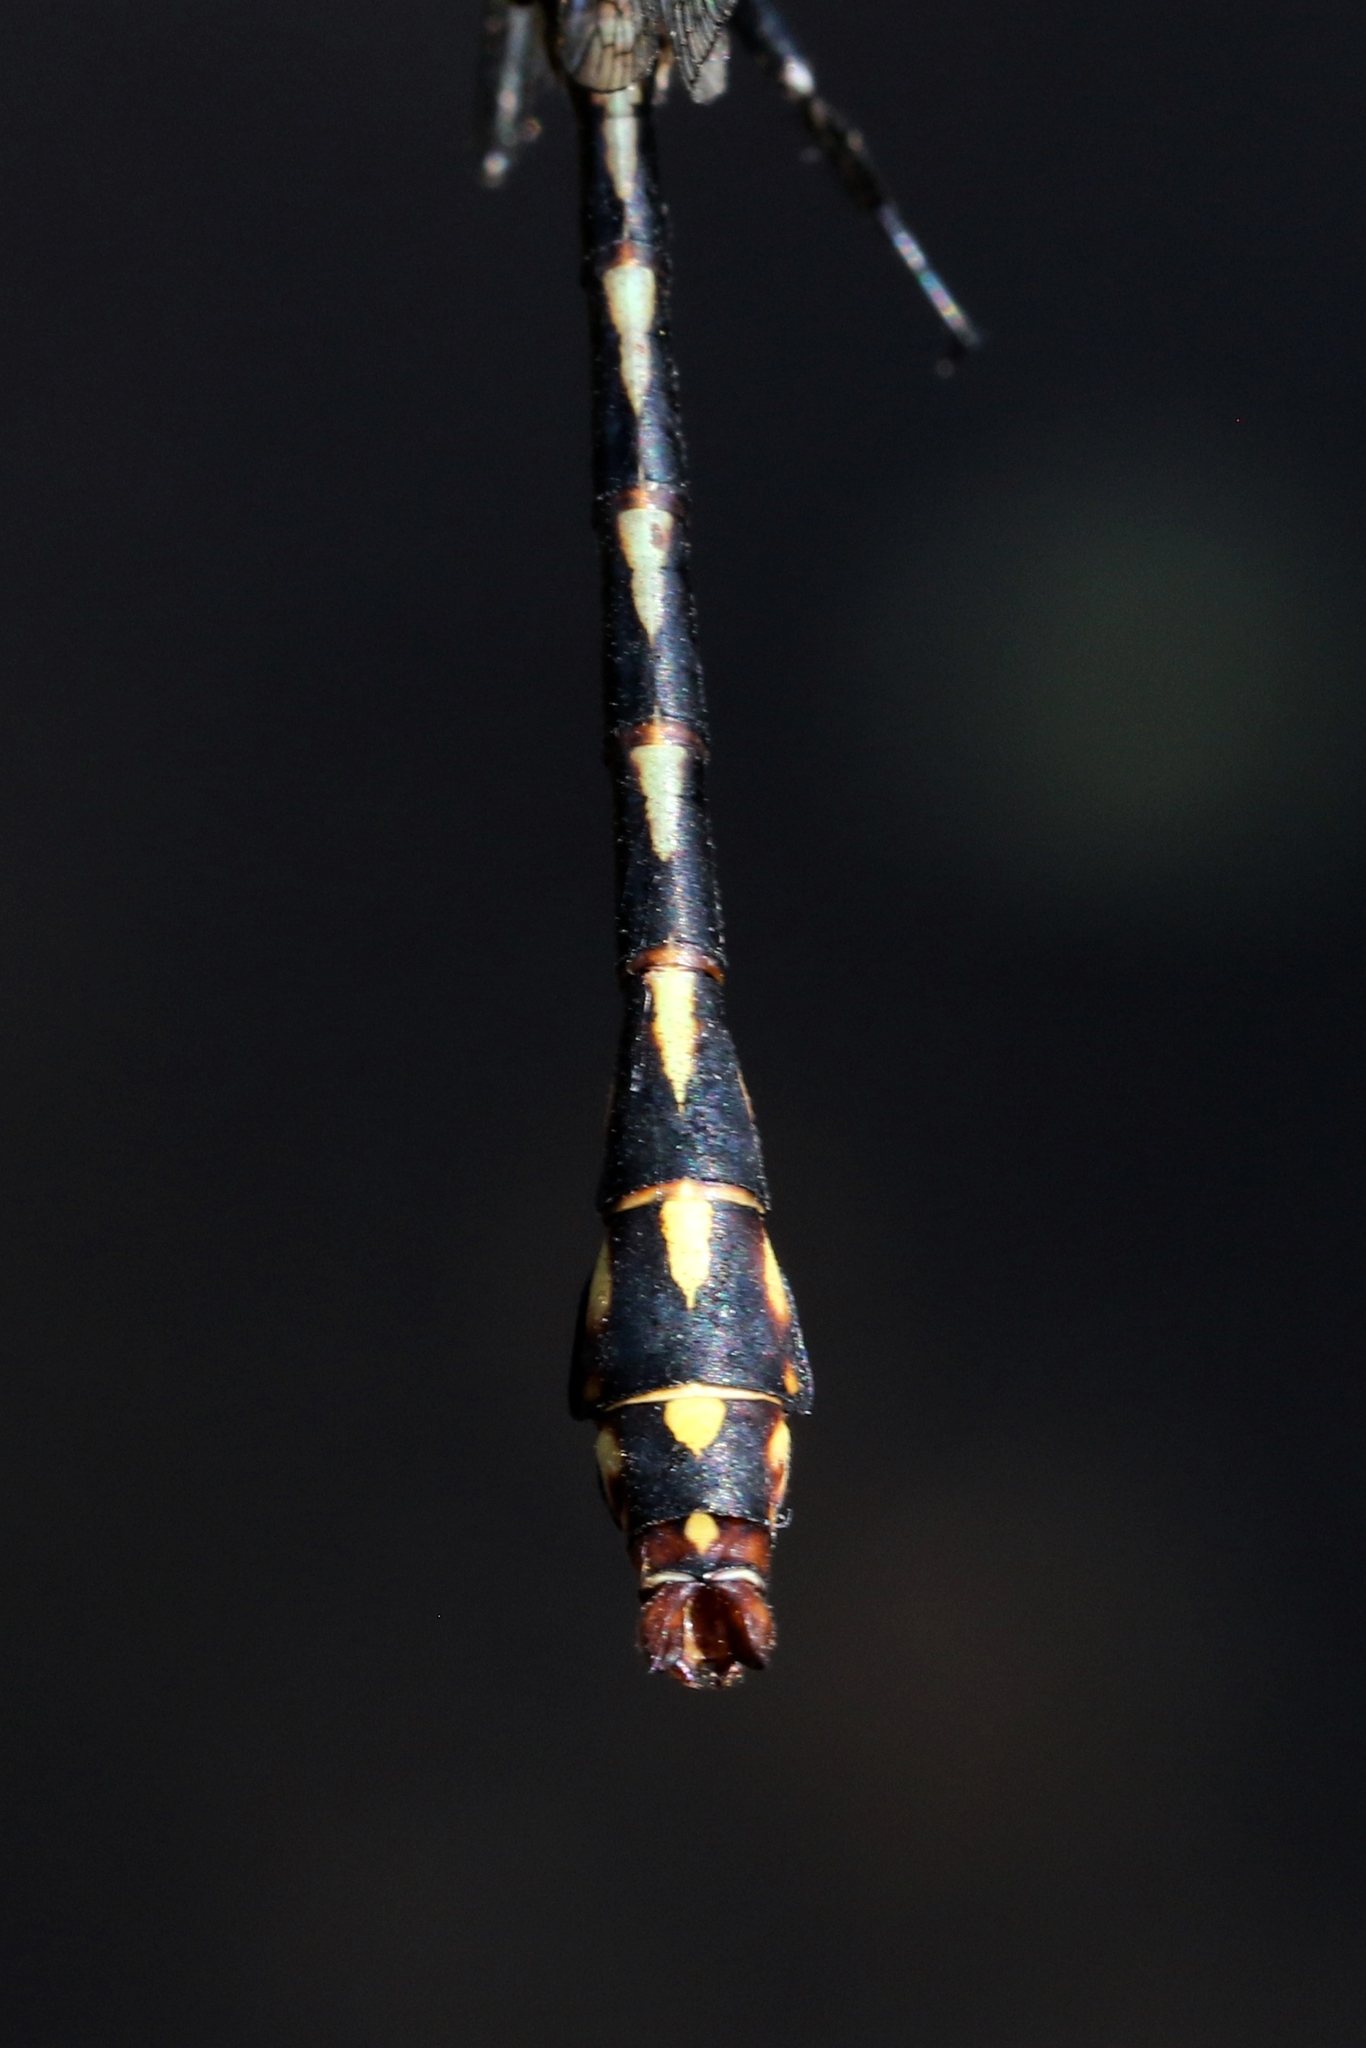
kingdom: Animalia
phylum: Arthropoda
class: Insecta
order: Odonata
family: Gomphidae
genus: Ophiogomphus
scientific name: Ophiogomphus aspersus
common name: Brook snaketail
